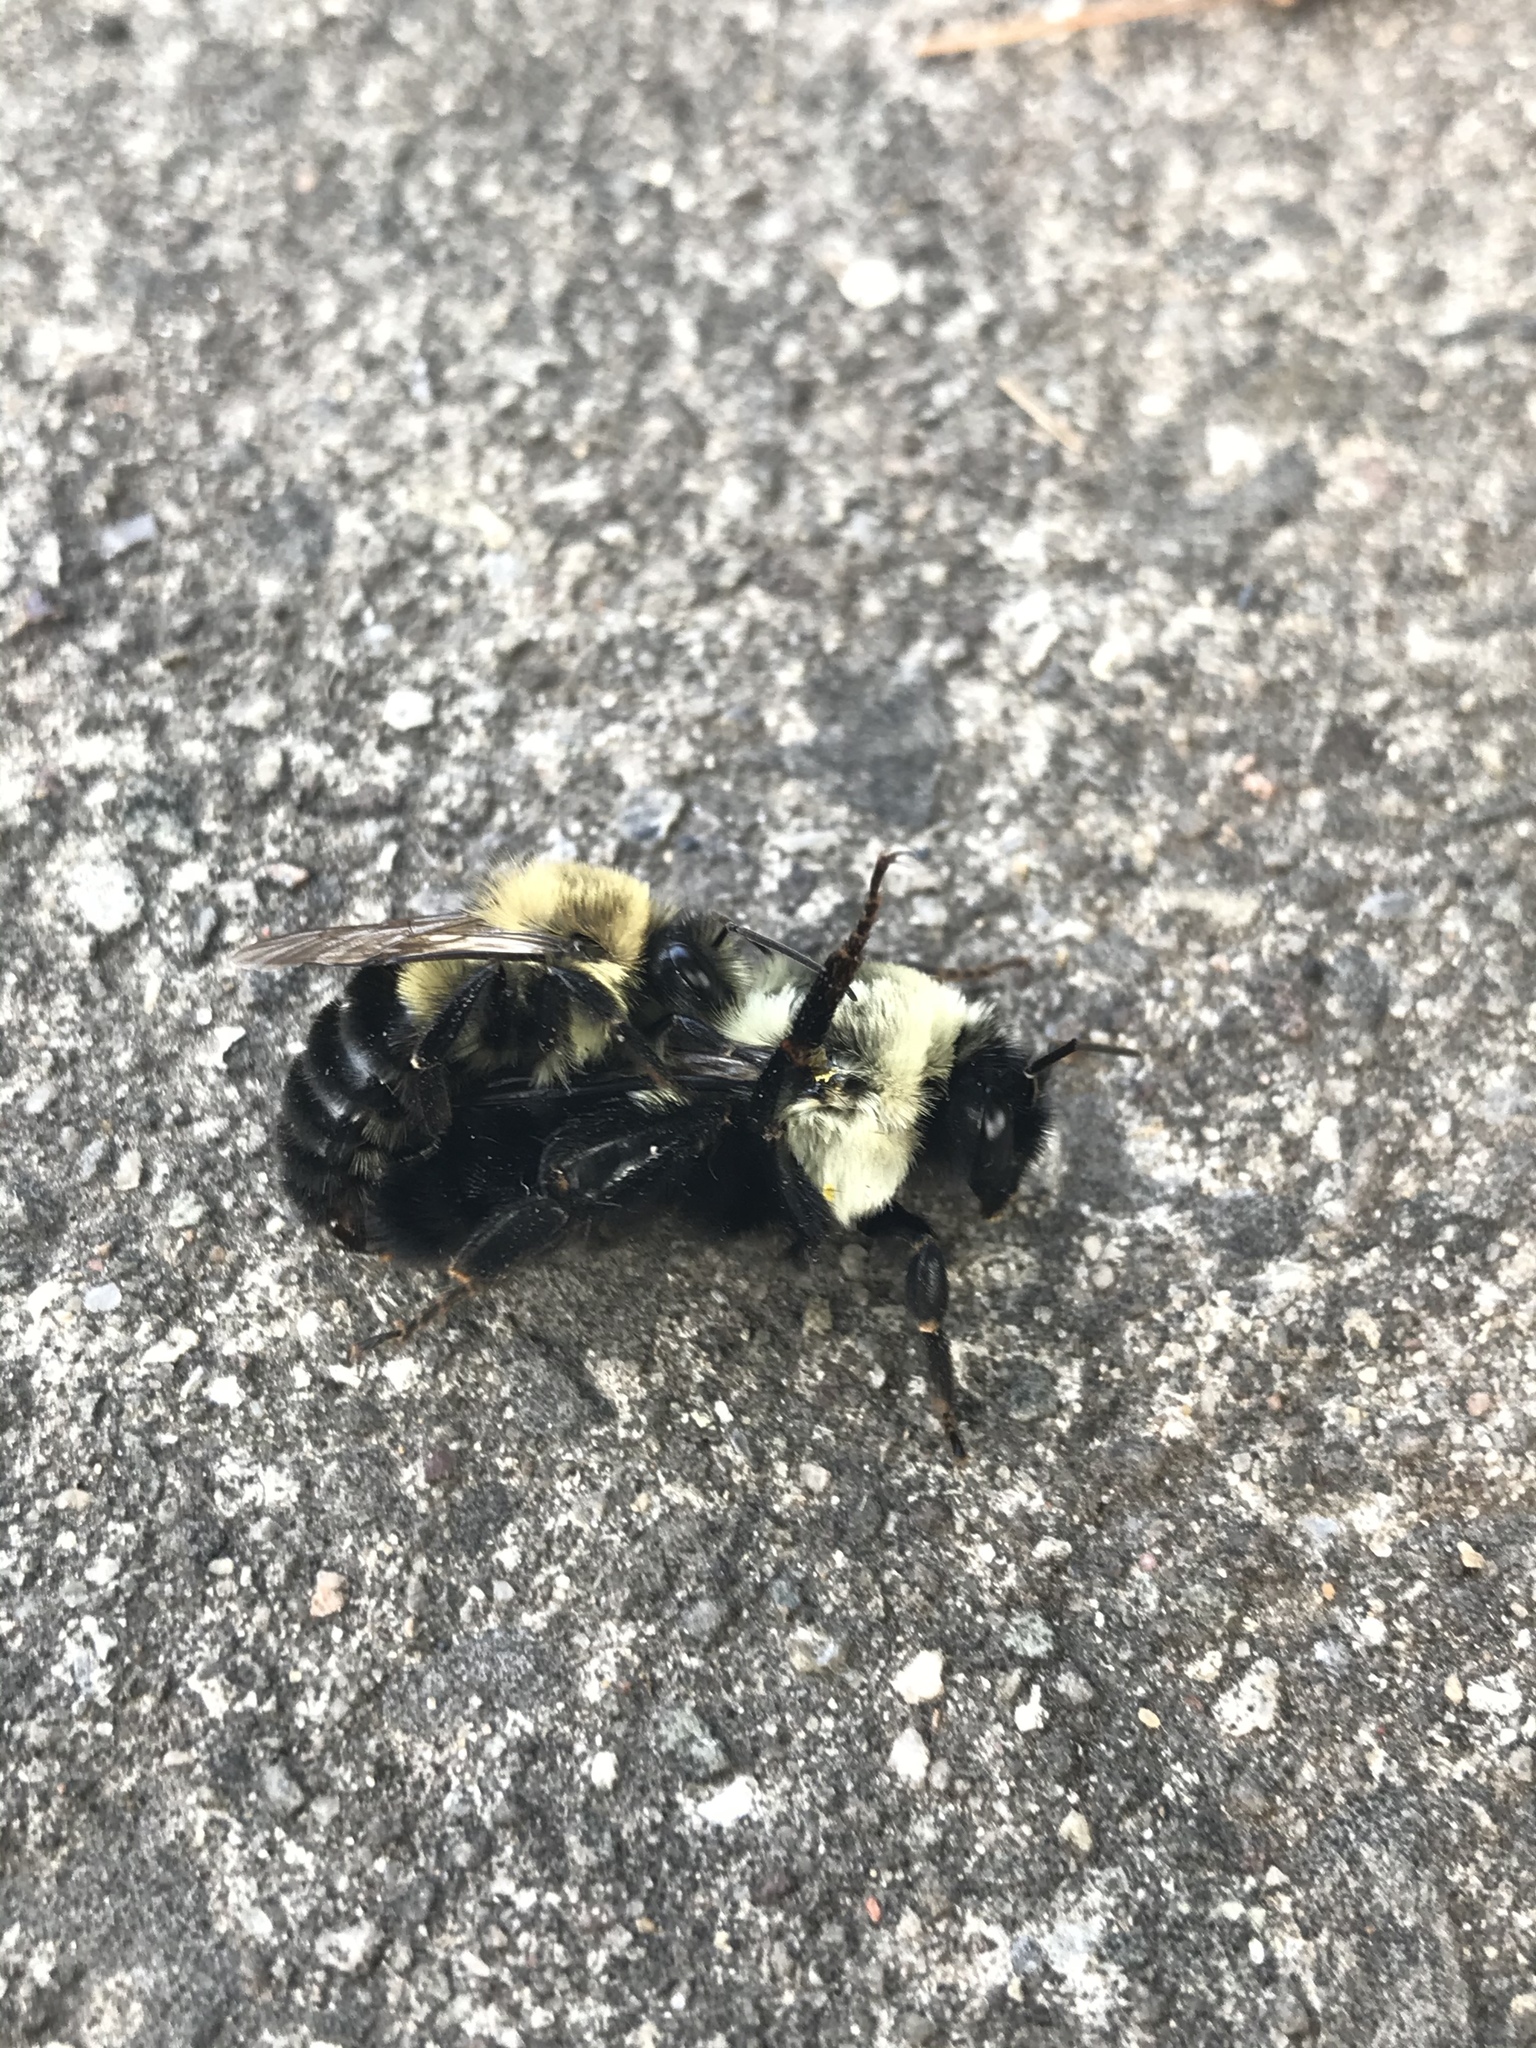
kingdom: Animalia
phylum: Arthropoda
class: Insecta
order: Hymenoptera
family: Apidae
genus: Bombus
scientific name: Bombus impatiens
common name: Common eastern bumble bee
